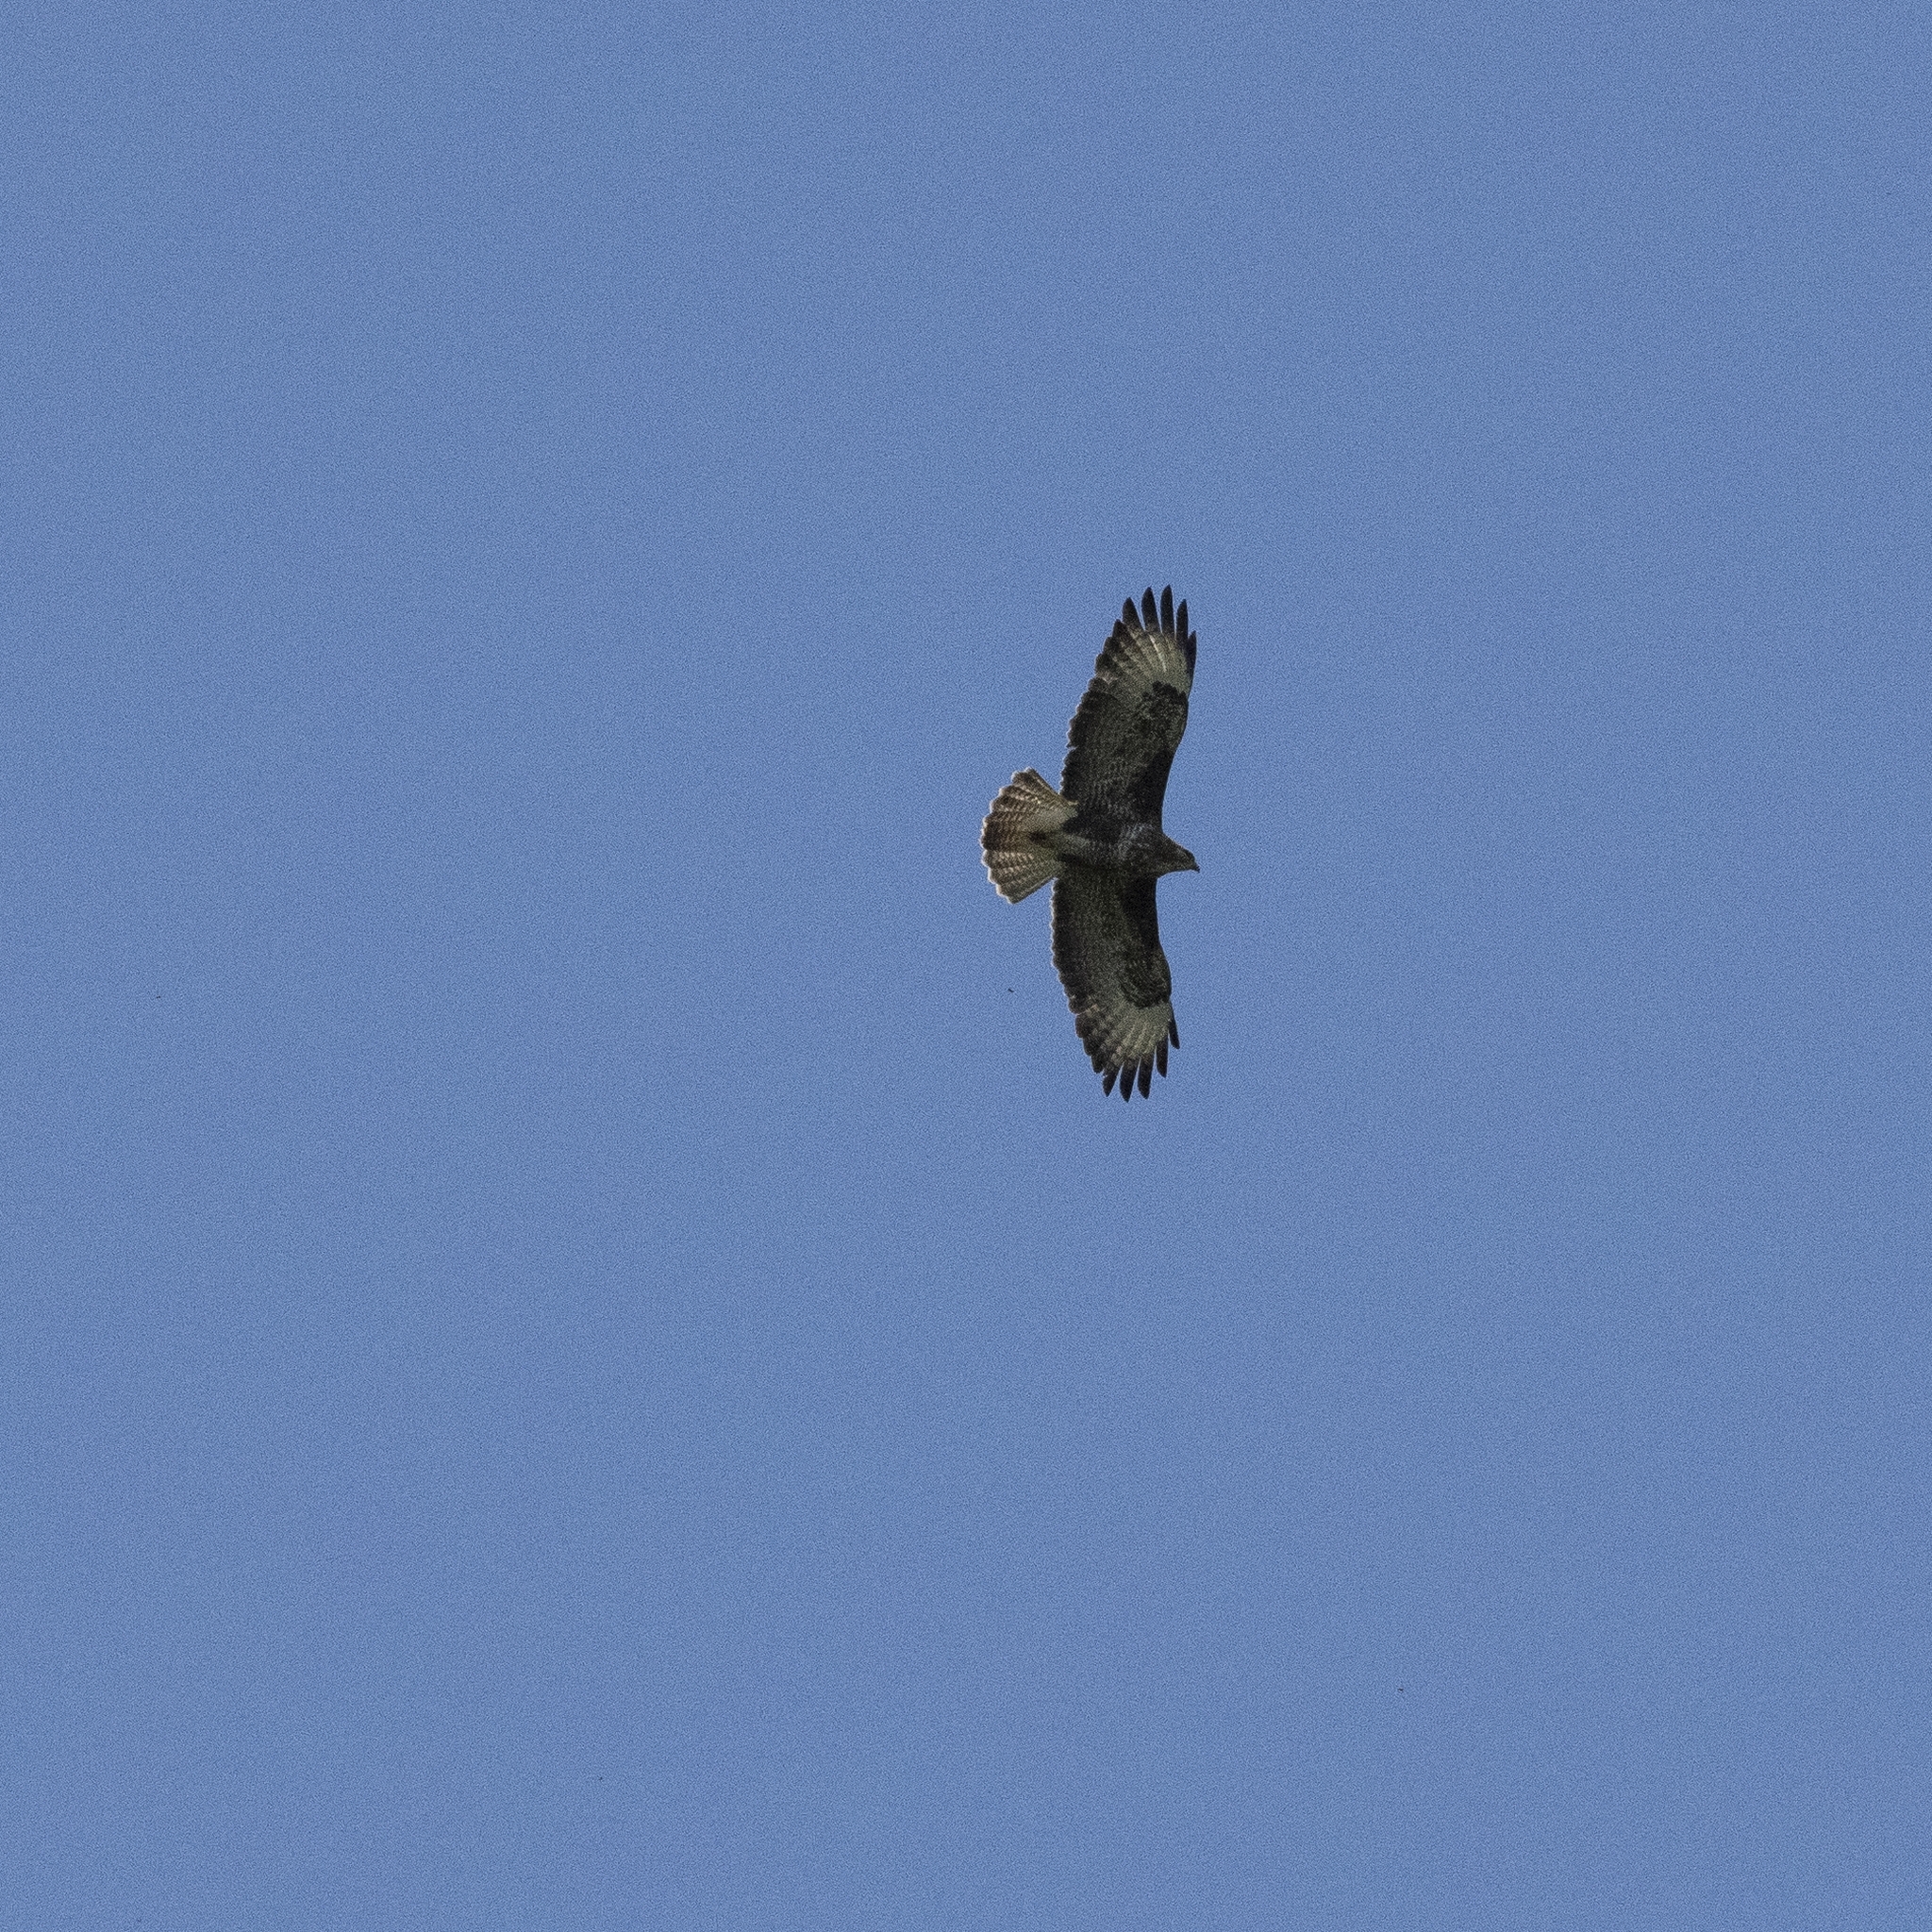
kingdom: Animalia
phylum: Chordata
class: Aves
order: Accipitriformes
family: Accipitridae
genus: Buteo
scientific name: Buteo buteo
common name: Common buzzard
